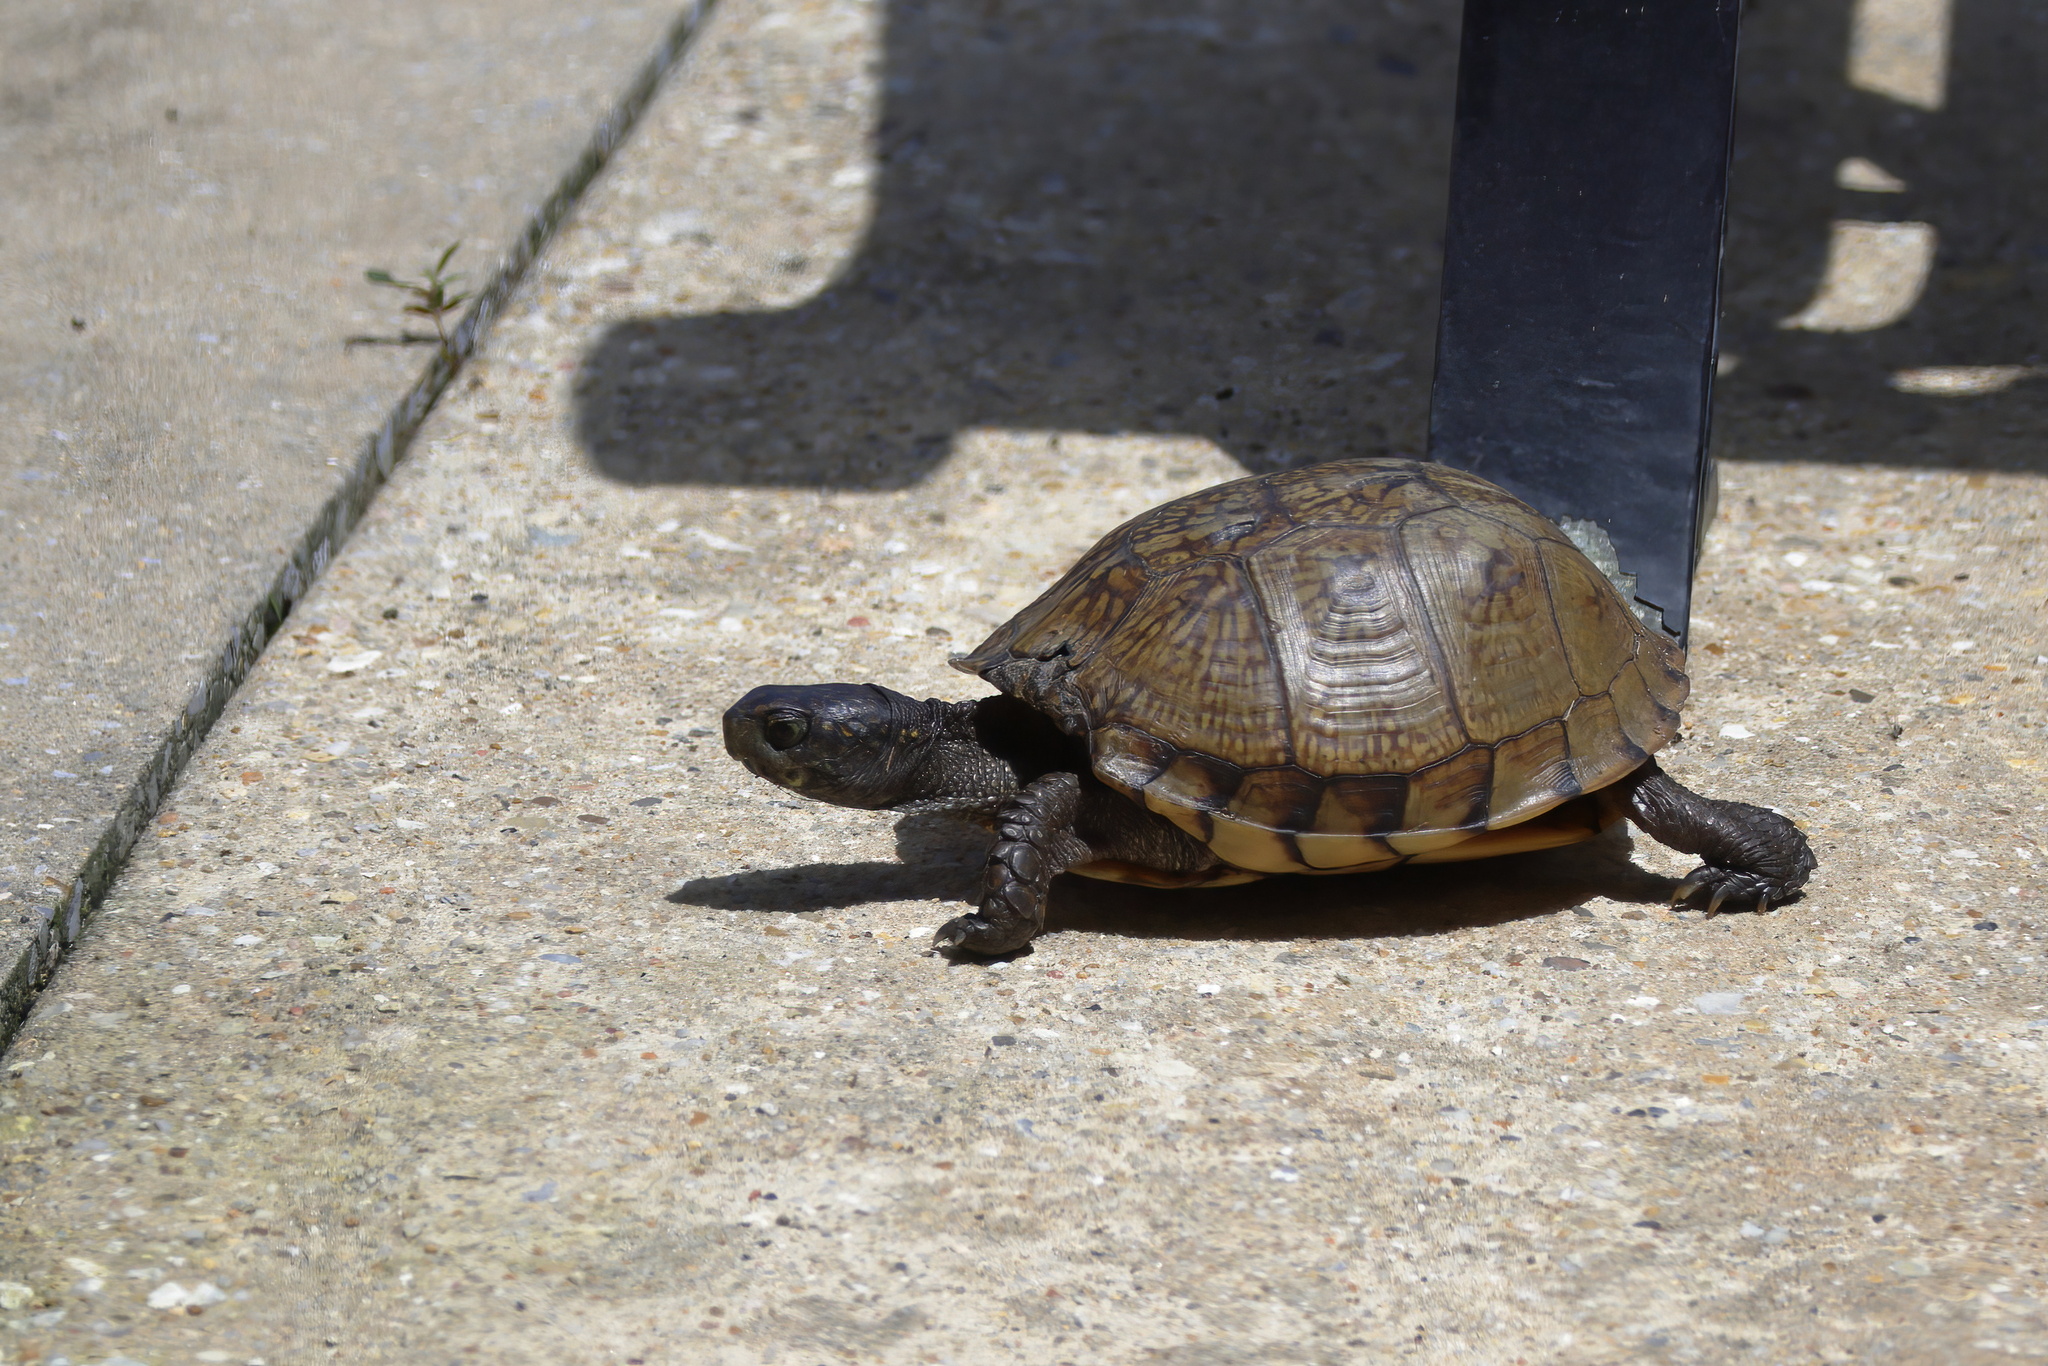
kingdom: Animalia
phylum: Chordata
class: Testudines
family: Emydidae
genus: Terrapene
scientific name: Terrapene carolina
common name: Common box turtle
